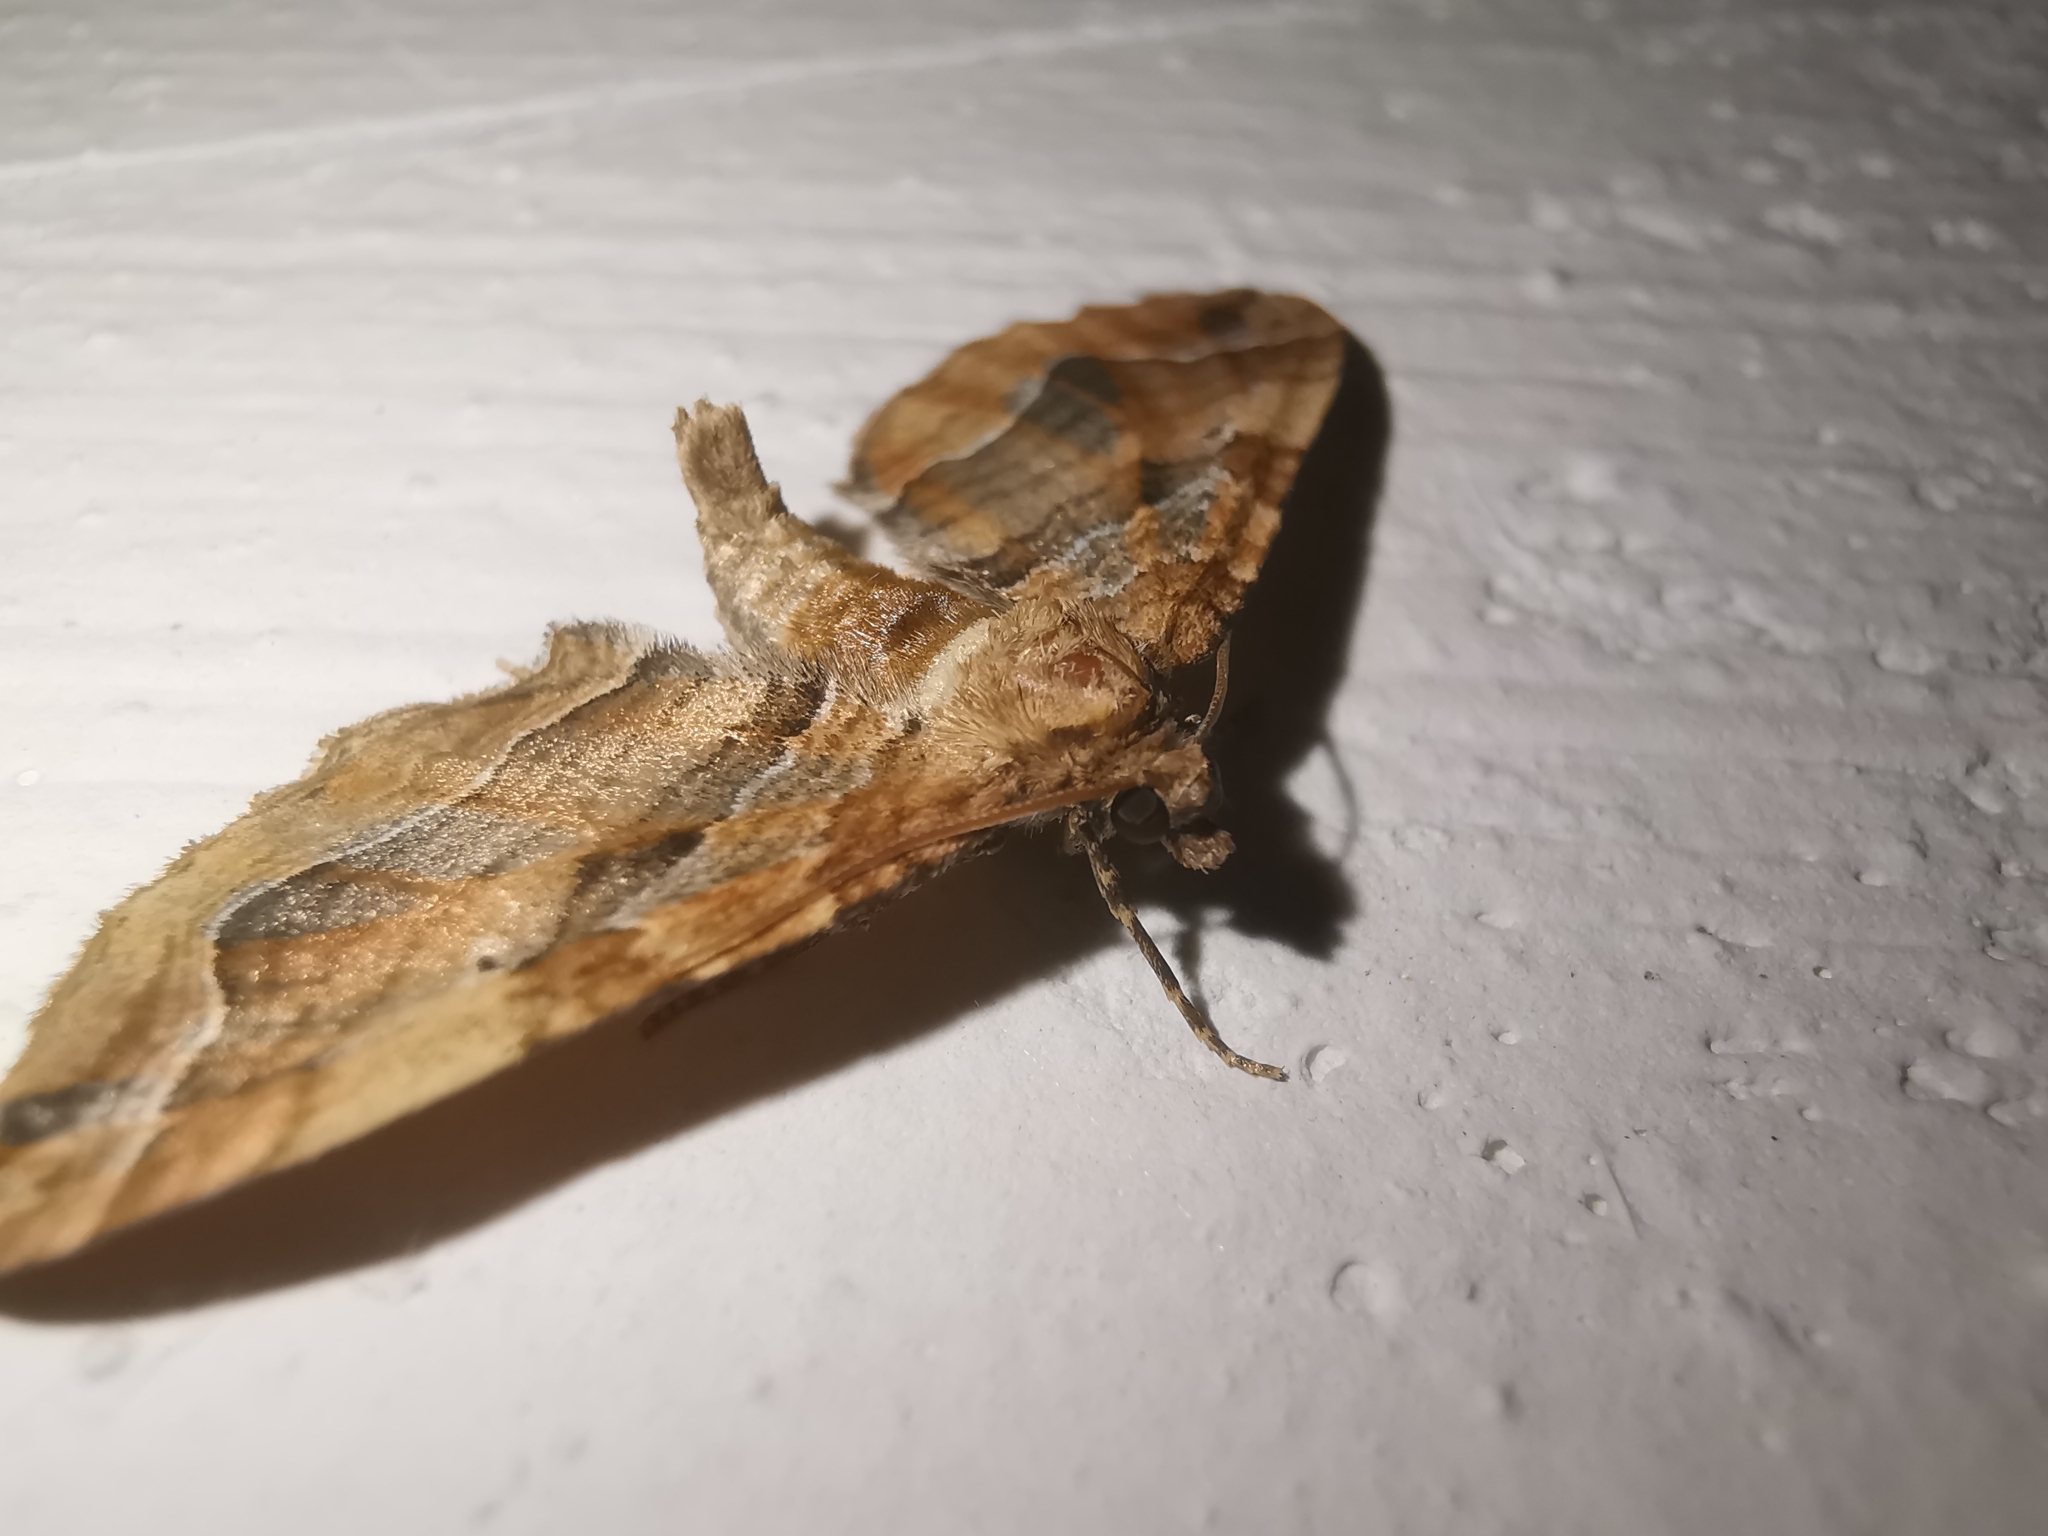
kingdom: Animalia
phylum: Arthropoda
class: Insecta
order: Lepidoptera
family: Geometridae
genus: Pelurga
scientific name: Pelurga comitata
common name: Dark spinach
